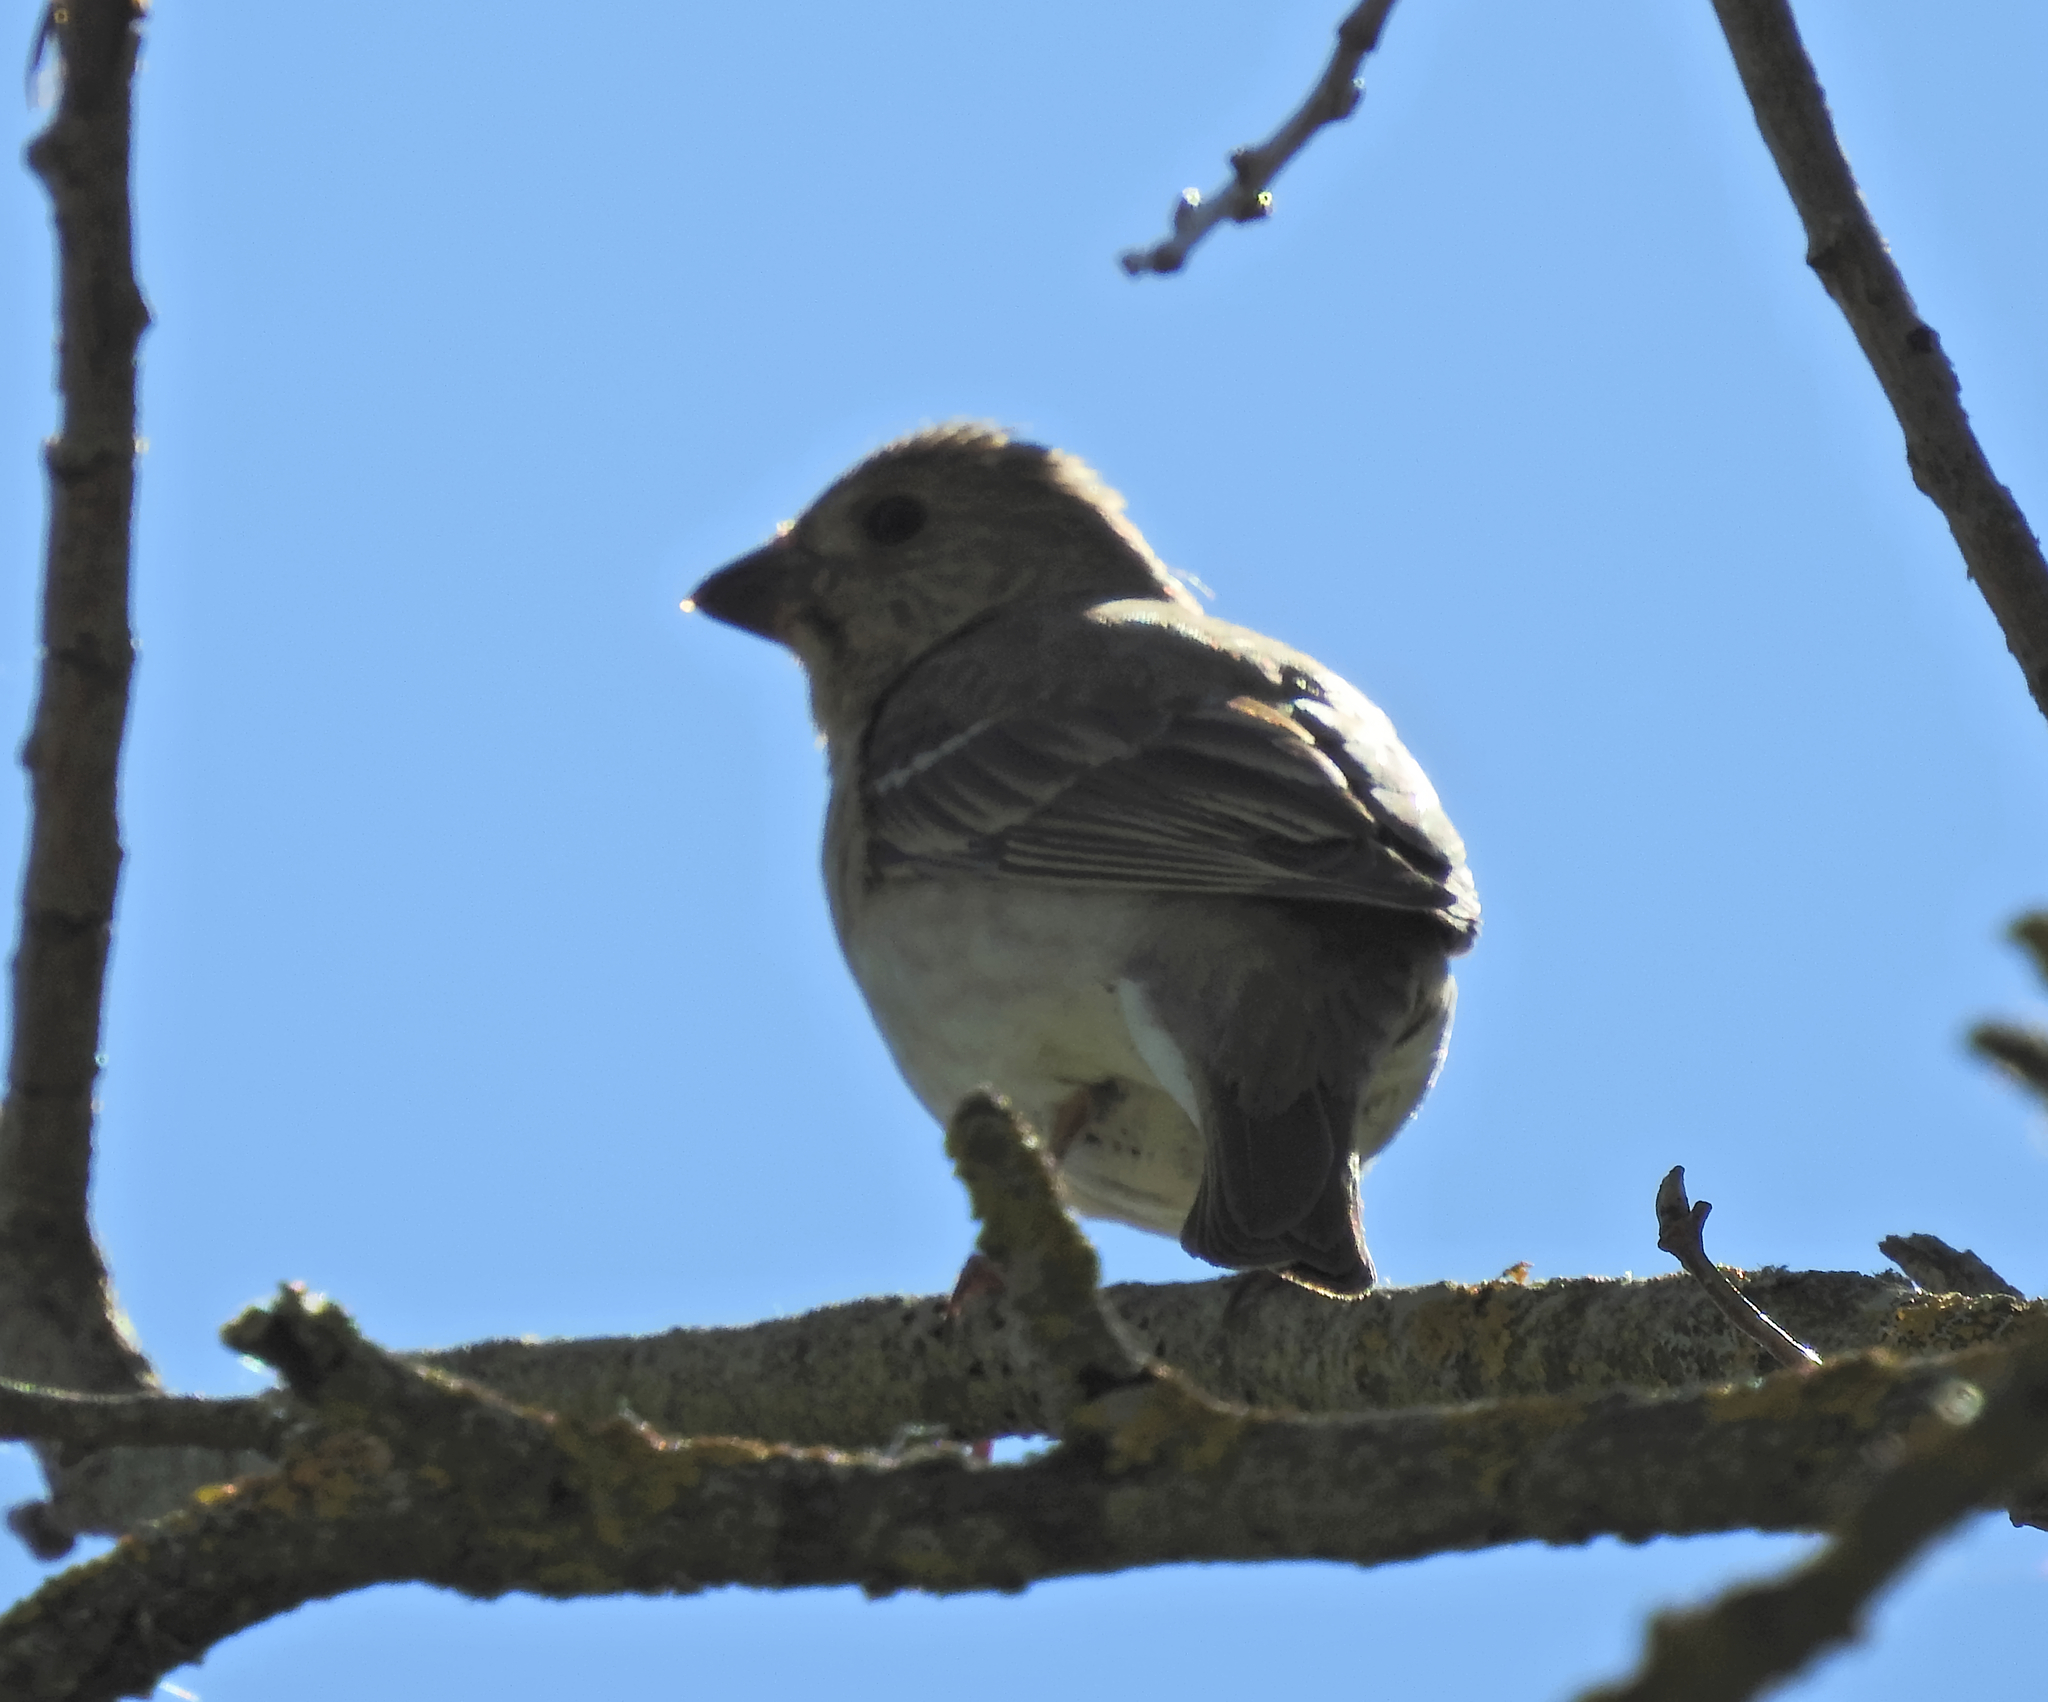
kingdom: Animalia
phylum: Chordata
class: Aves
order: Passeriformes
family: Fringillidae
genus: Carpodacus
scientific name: Carpodacus erythrinus
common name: Common rosefinch
